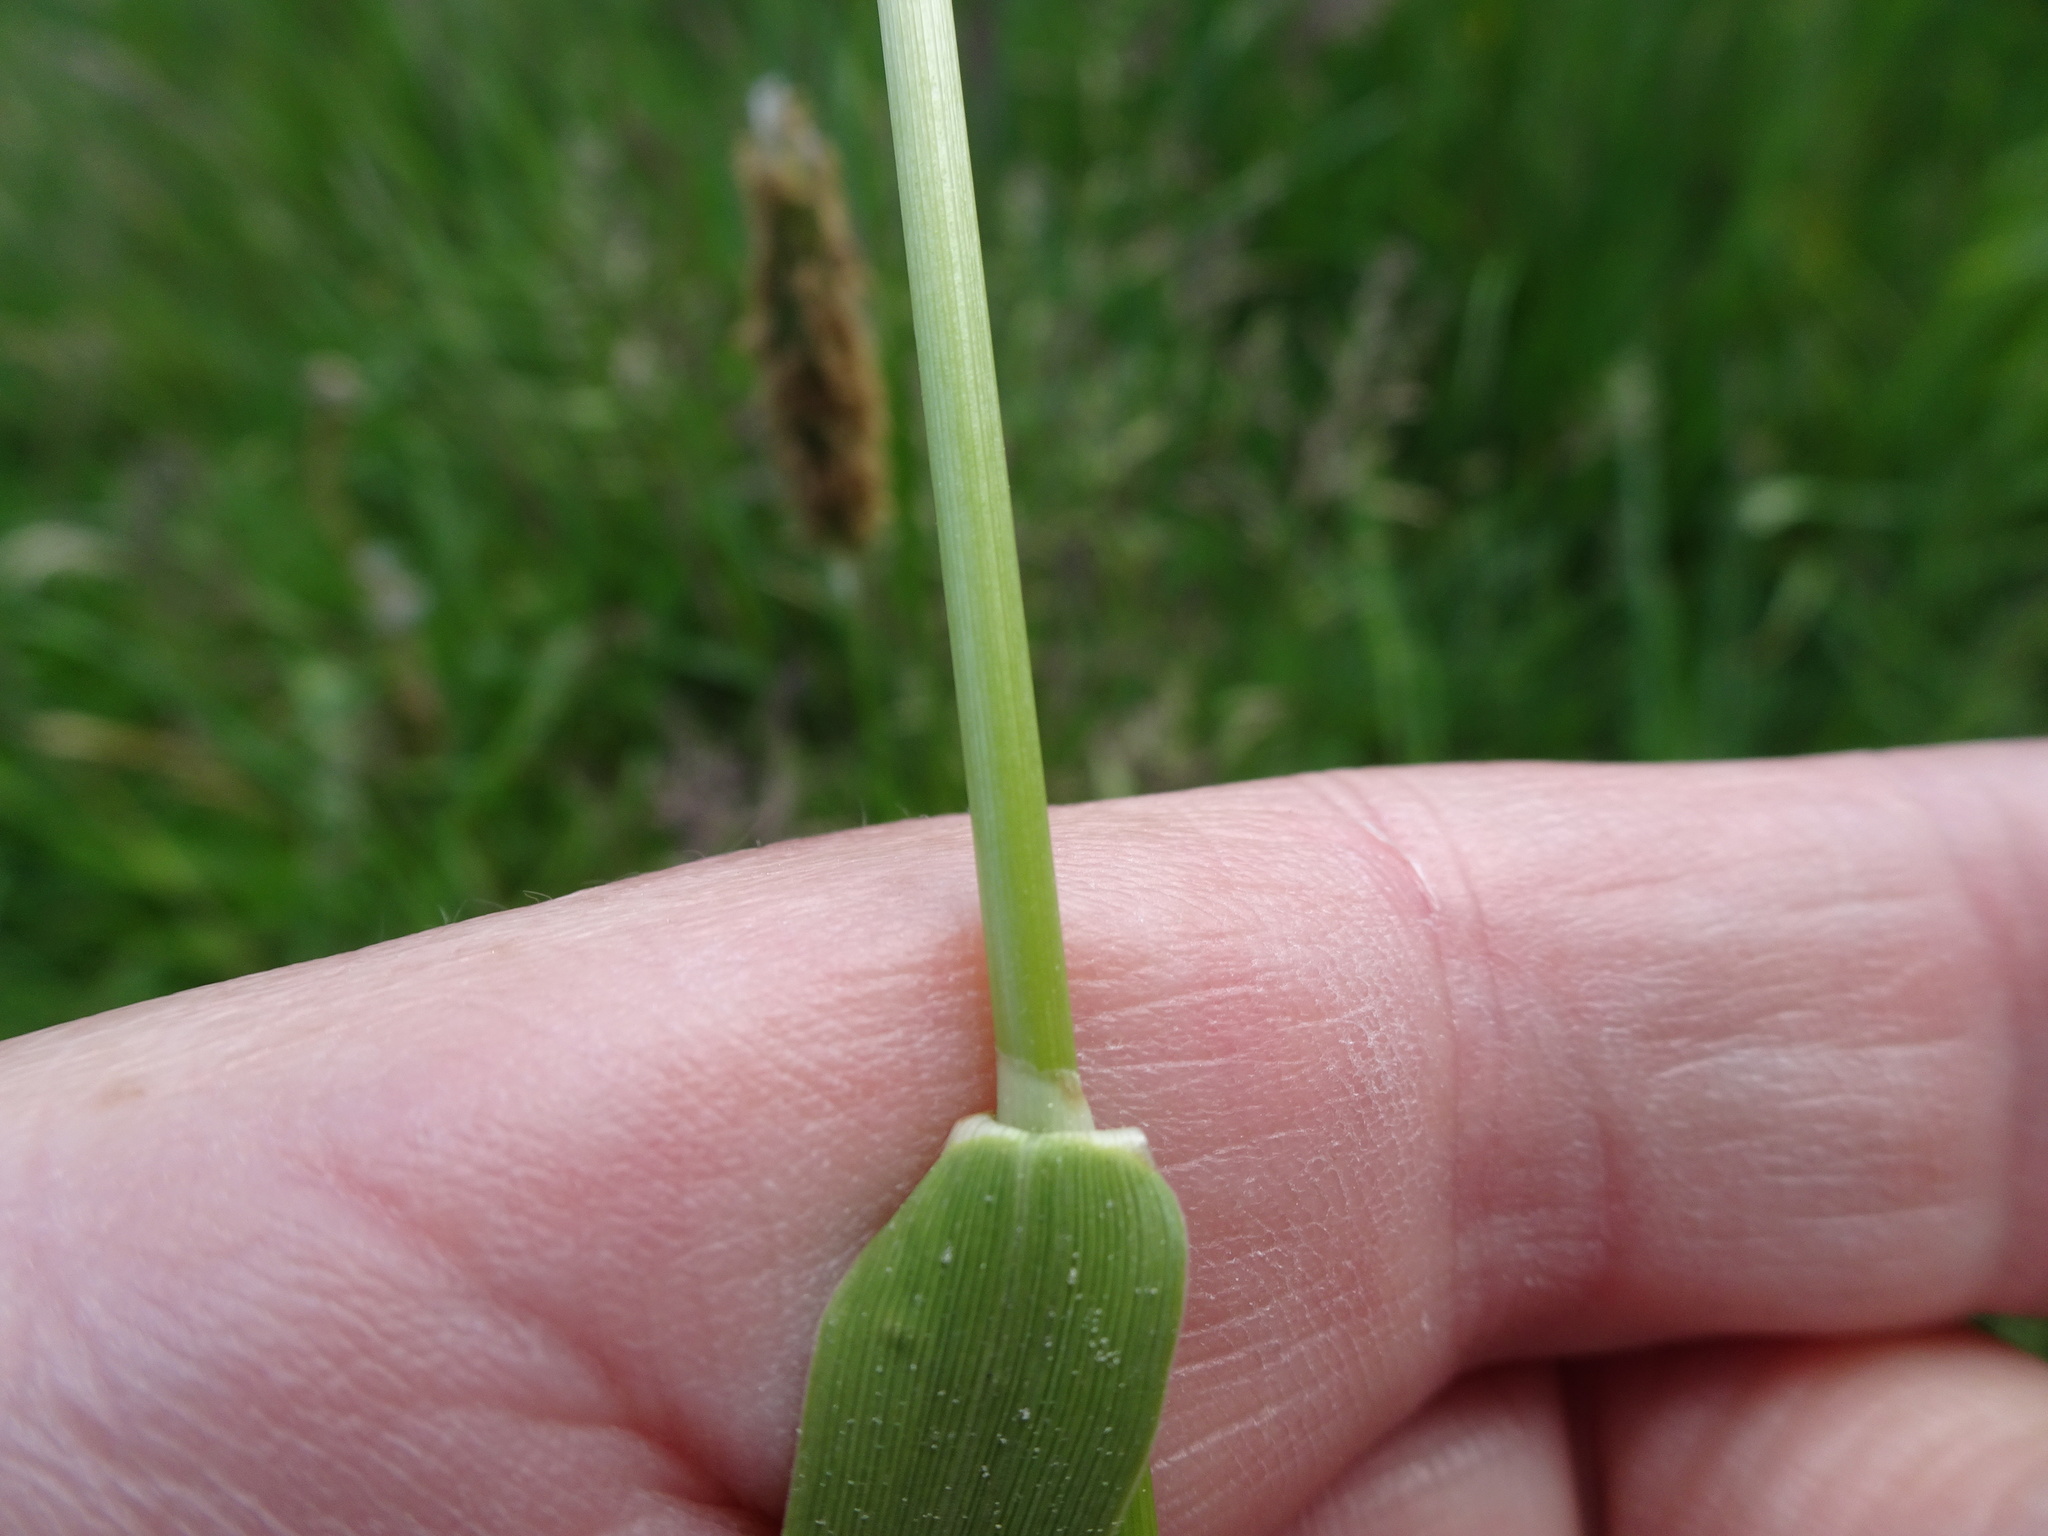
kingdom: Plantae
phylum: Tracheophyta
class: Liliopsida
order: Poales
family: Poaceae
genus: Alopecurus
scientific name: Alopecurus pratensis
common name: Meadow foxtail
